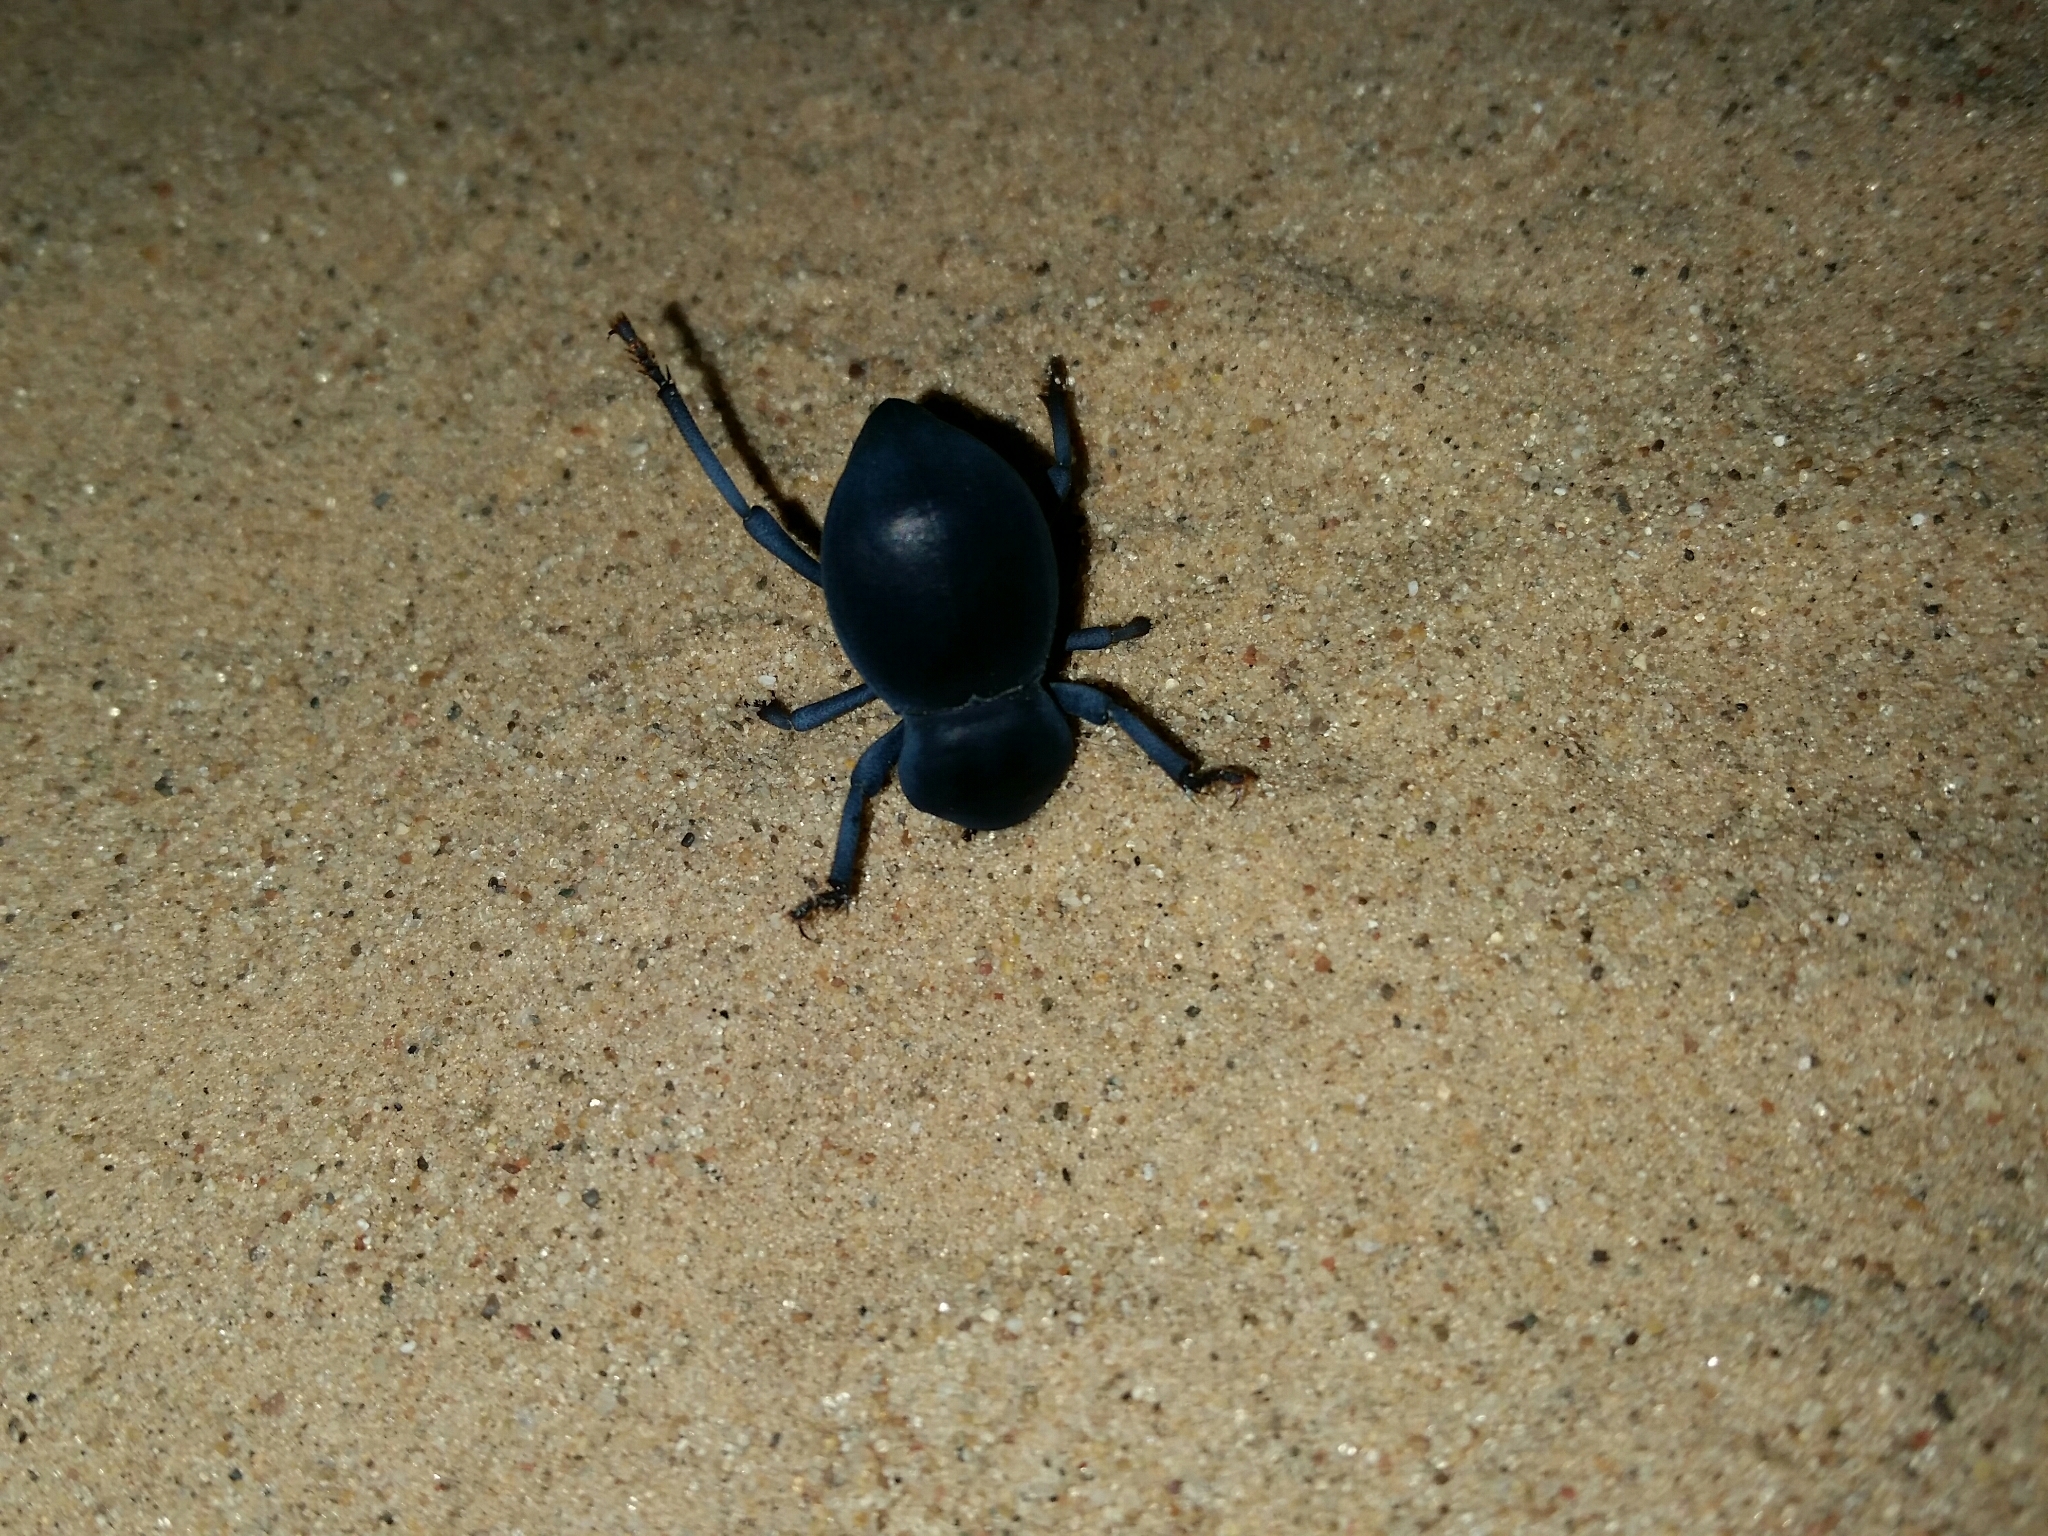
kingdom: Animalia
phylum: Arthropoda
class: Insecta
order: Coleoptera
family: Tenebrionidae
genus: Asbolus
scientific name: Asbolus laevis
